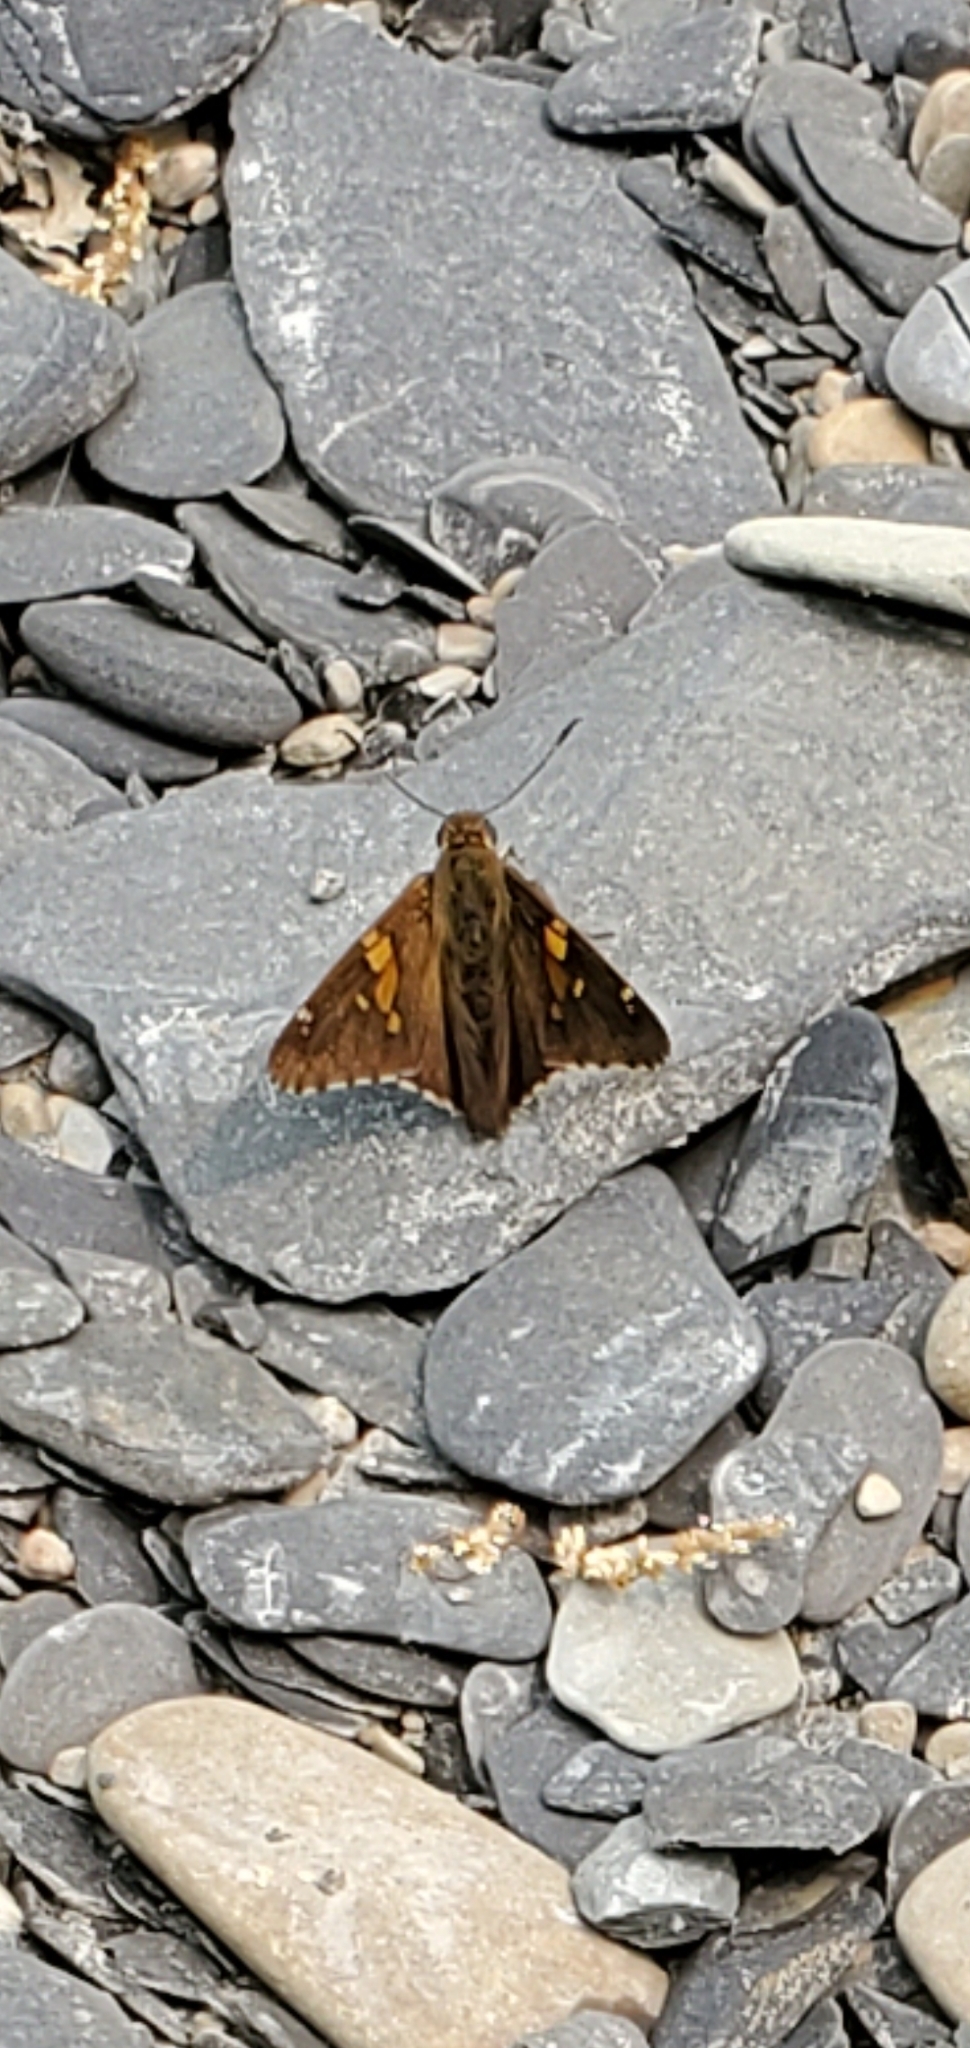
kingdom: Animalia
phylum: Arthropoda
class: Insecta
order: Lepidoptera
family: Hesperiidae
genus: Epargyreus
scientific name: Epargyreus clarus
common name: Silver-spotted skipper
